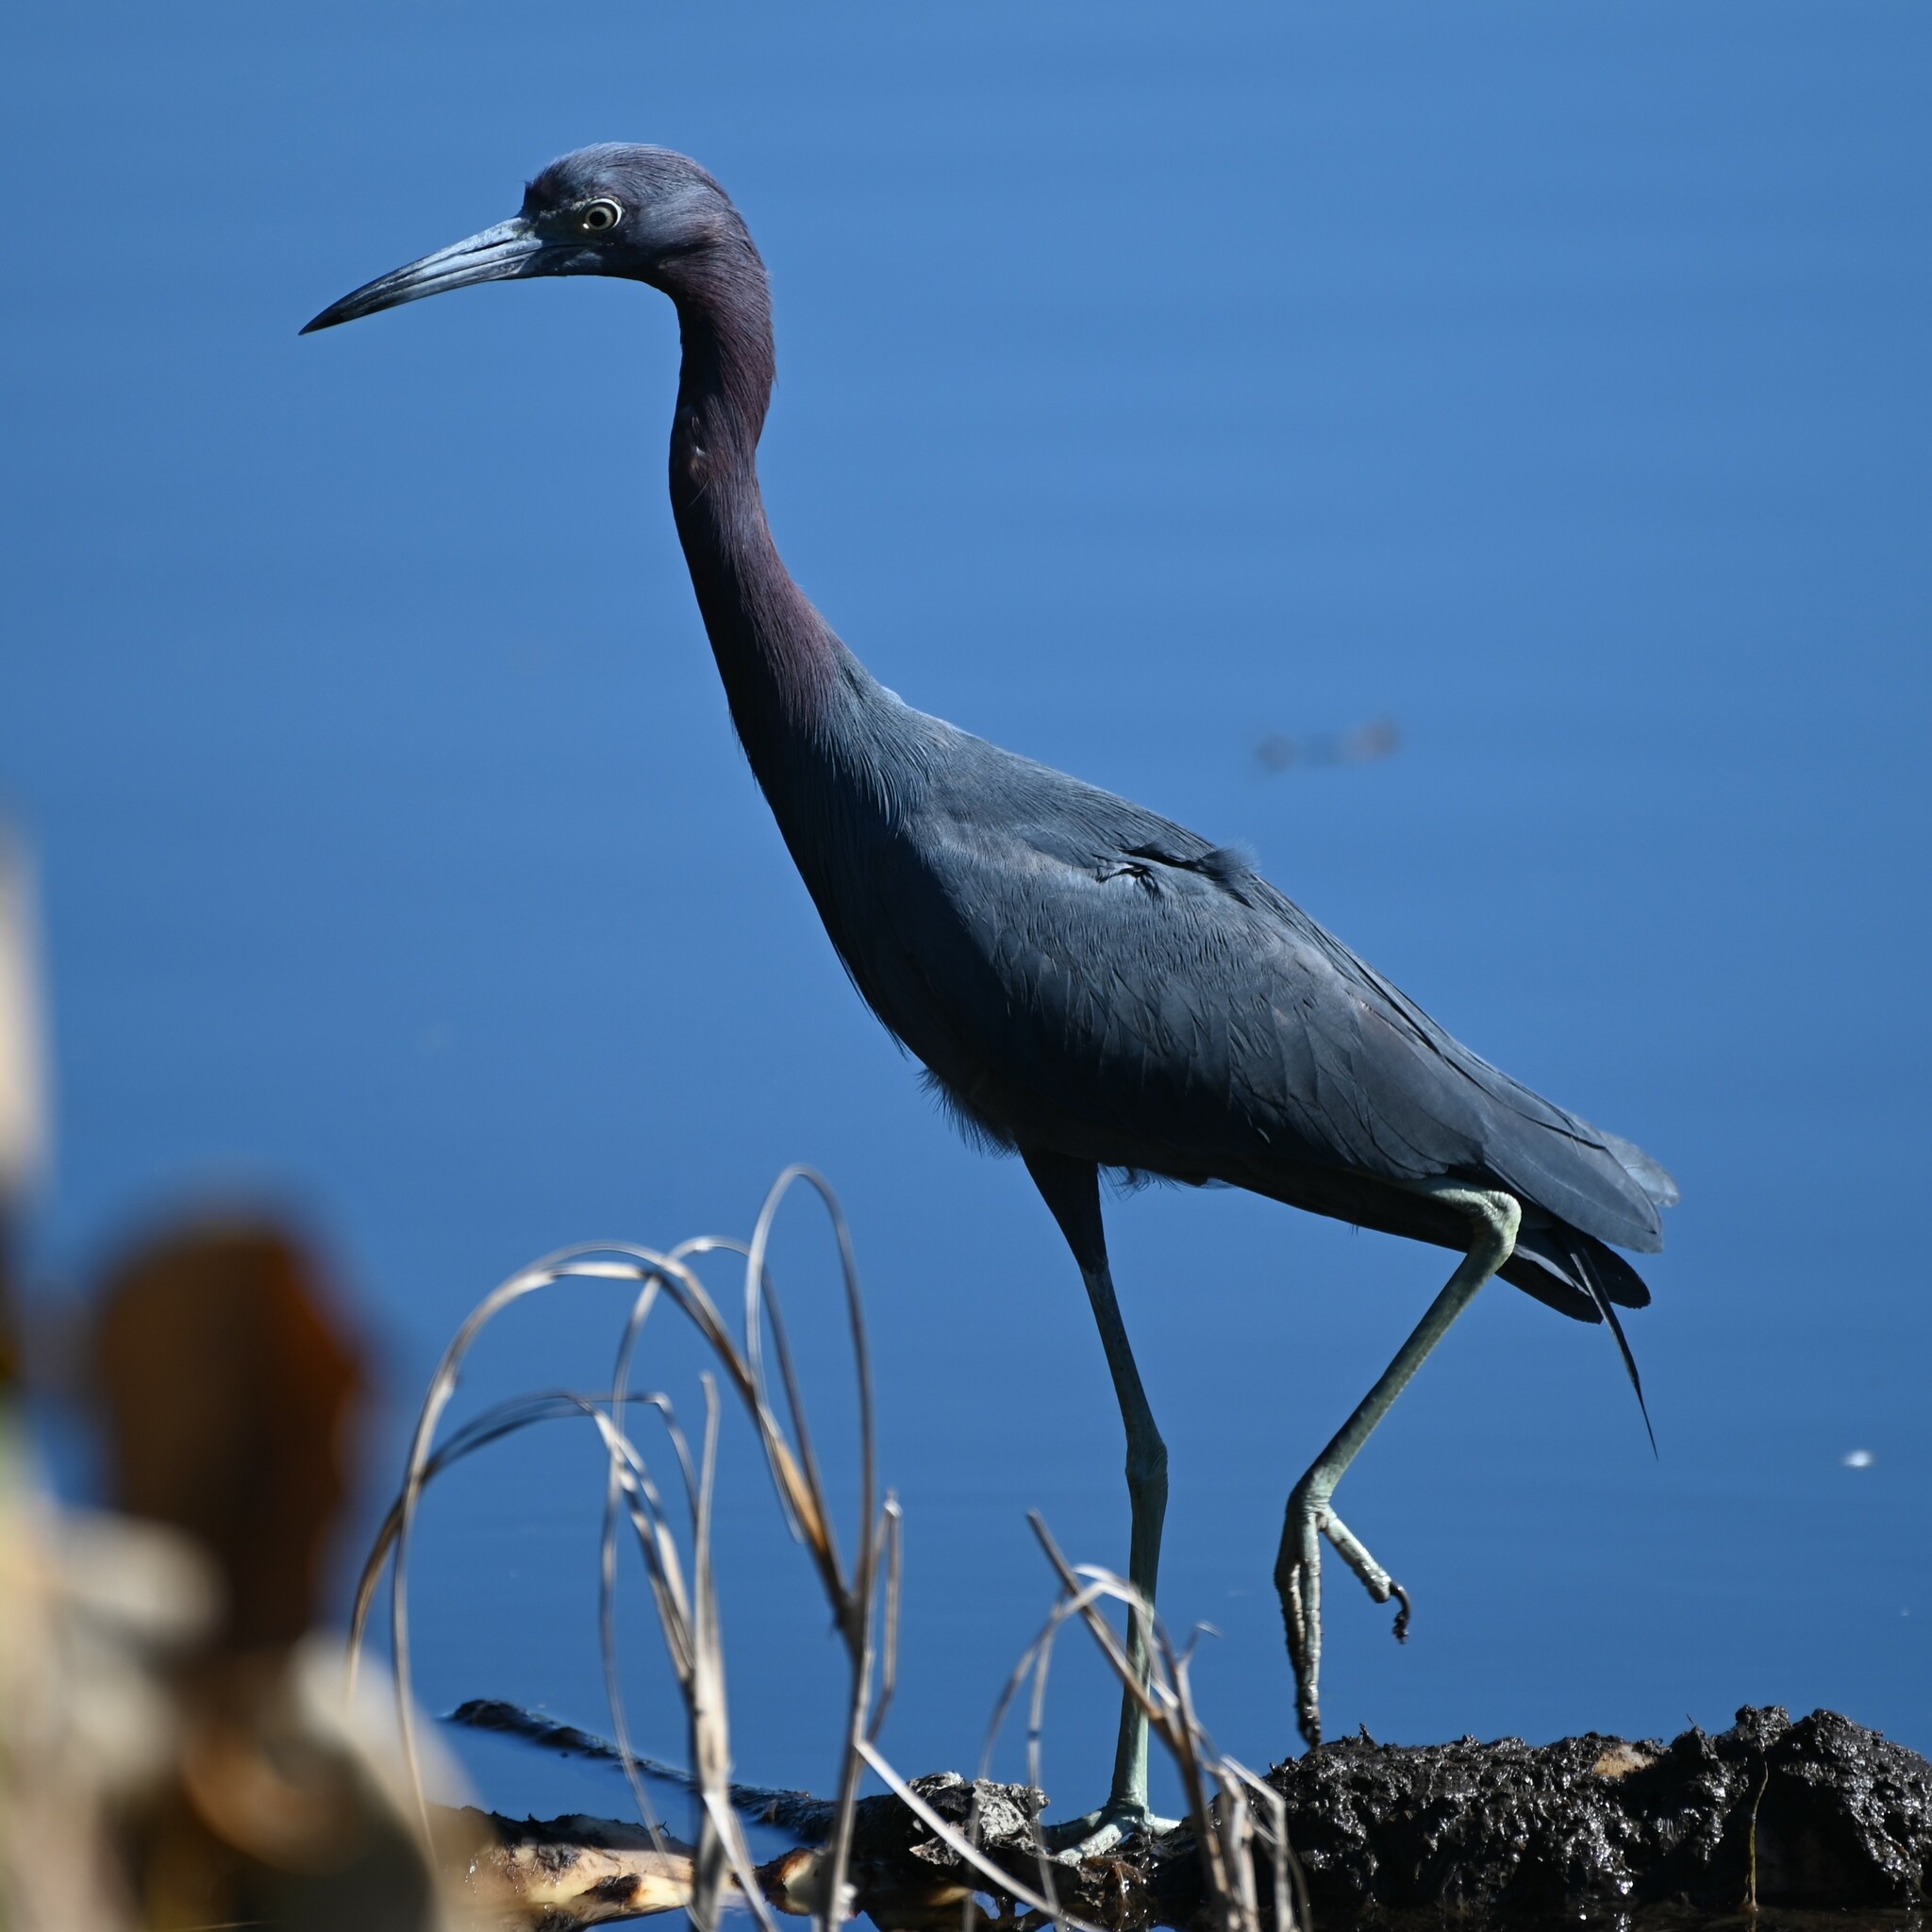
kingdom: Animalia
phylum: Chordata
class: Aves
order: Pelecaniformes
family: Ardeidae
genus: Egretta
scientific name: Egretta caerulea
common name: Little blue heron
